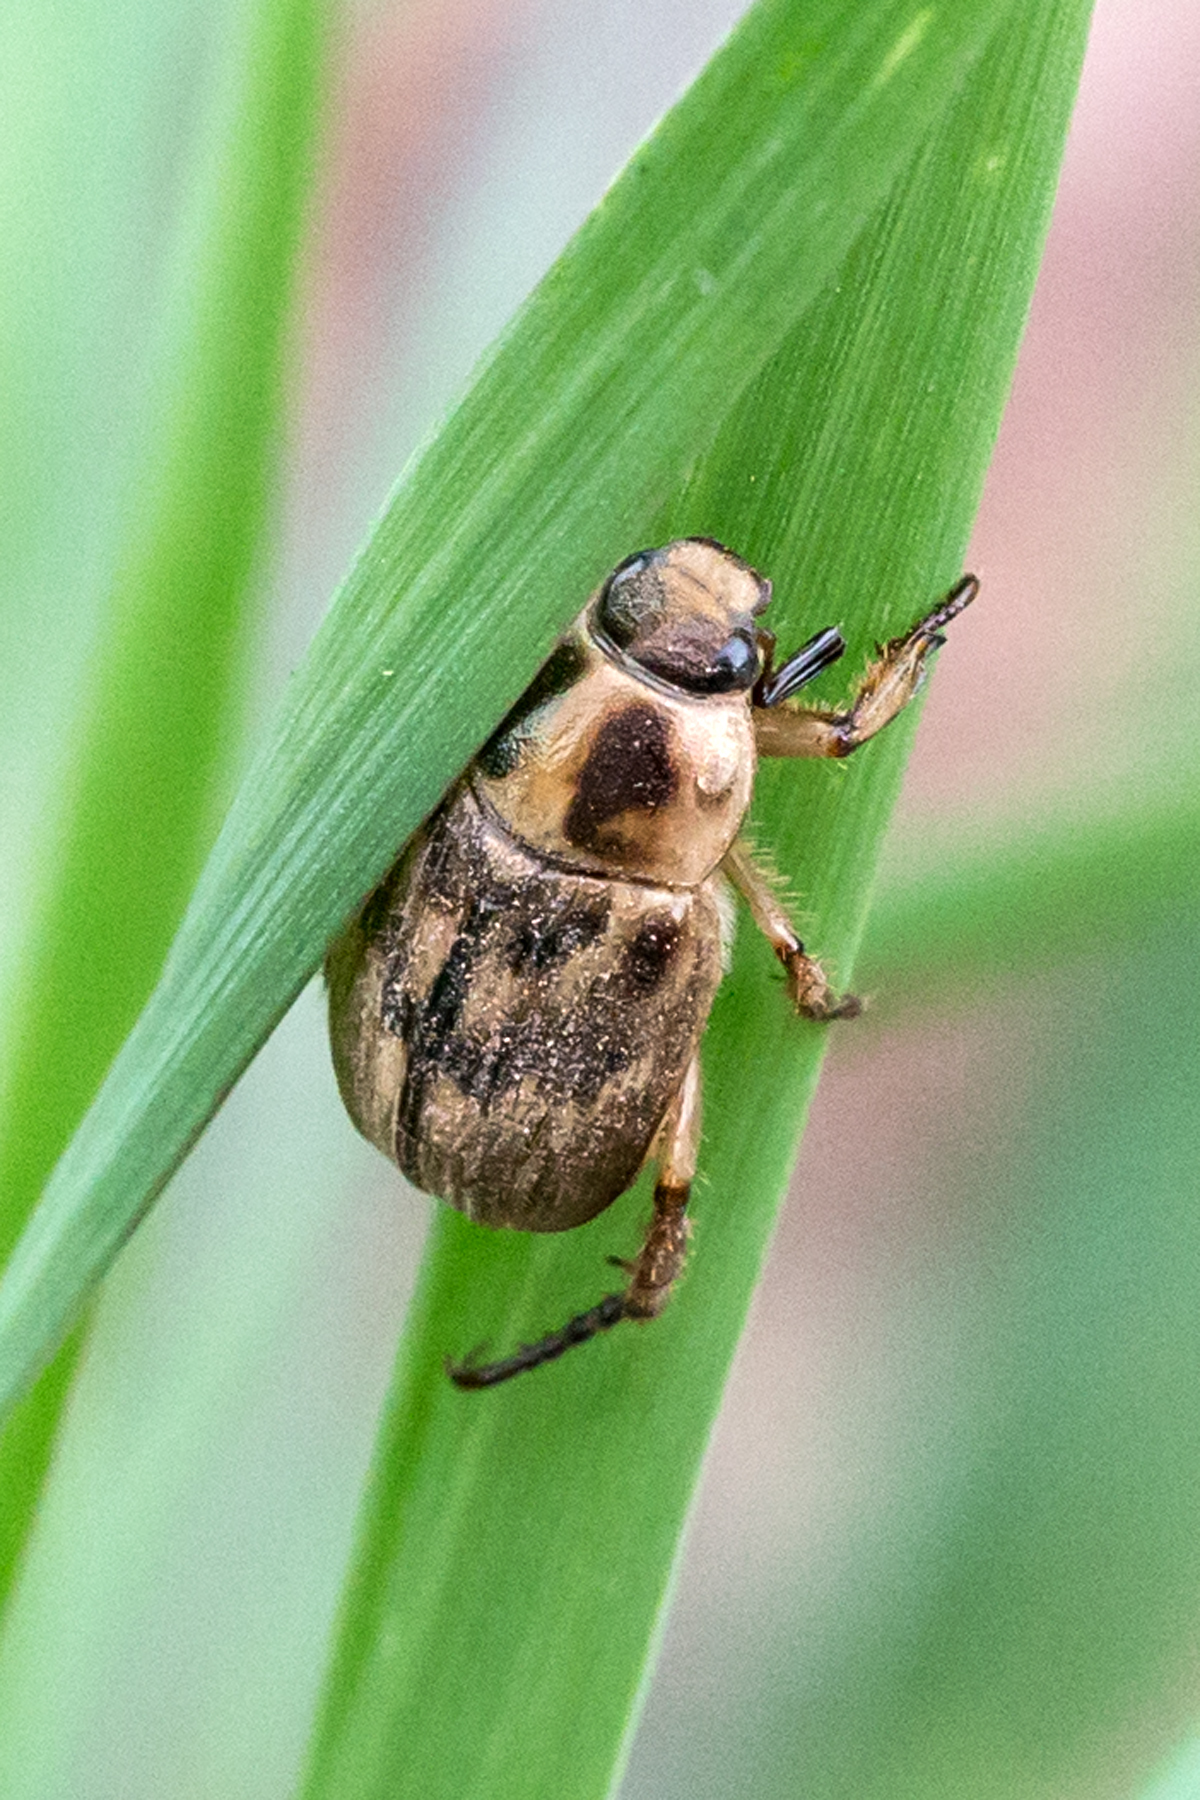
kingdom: Animalia
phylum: Arthropoda
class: Insecta
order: Coleoptera
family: Scarabaeidae
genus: Exomala
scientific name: Exomala orientalis
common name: Oriental beetle
